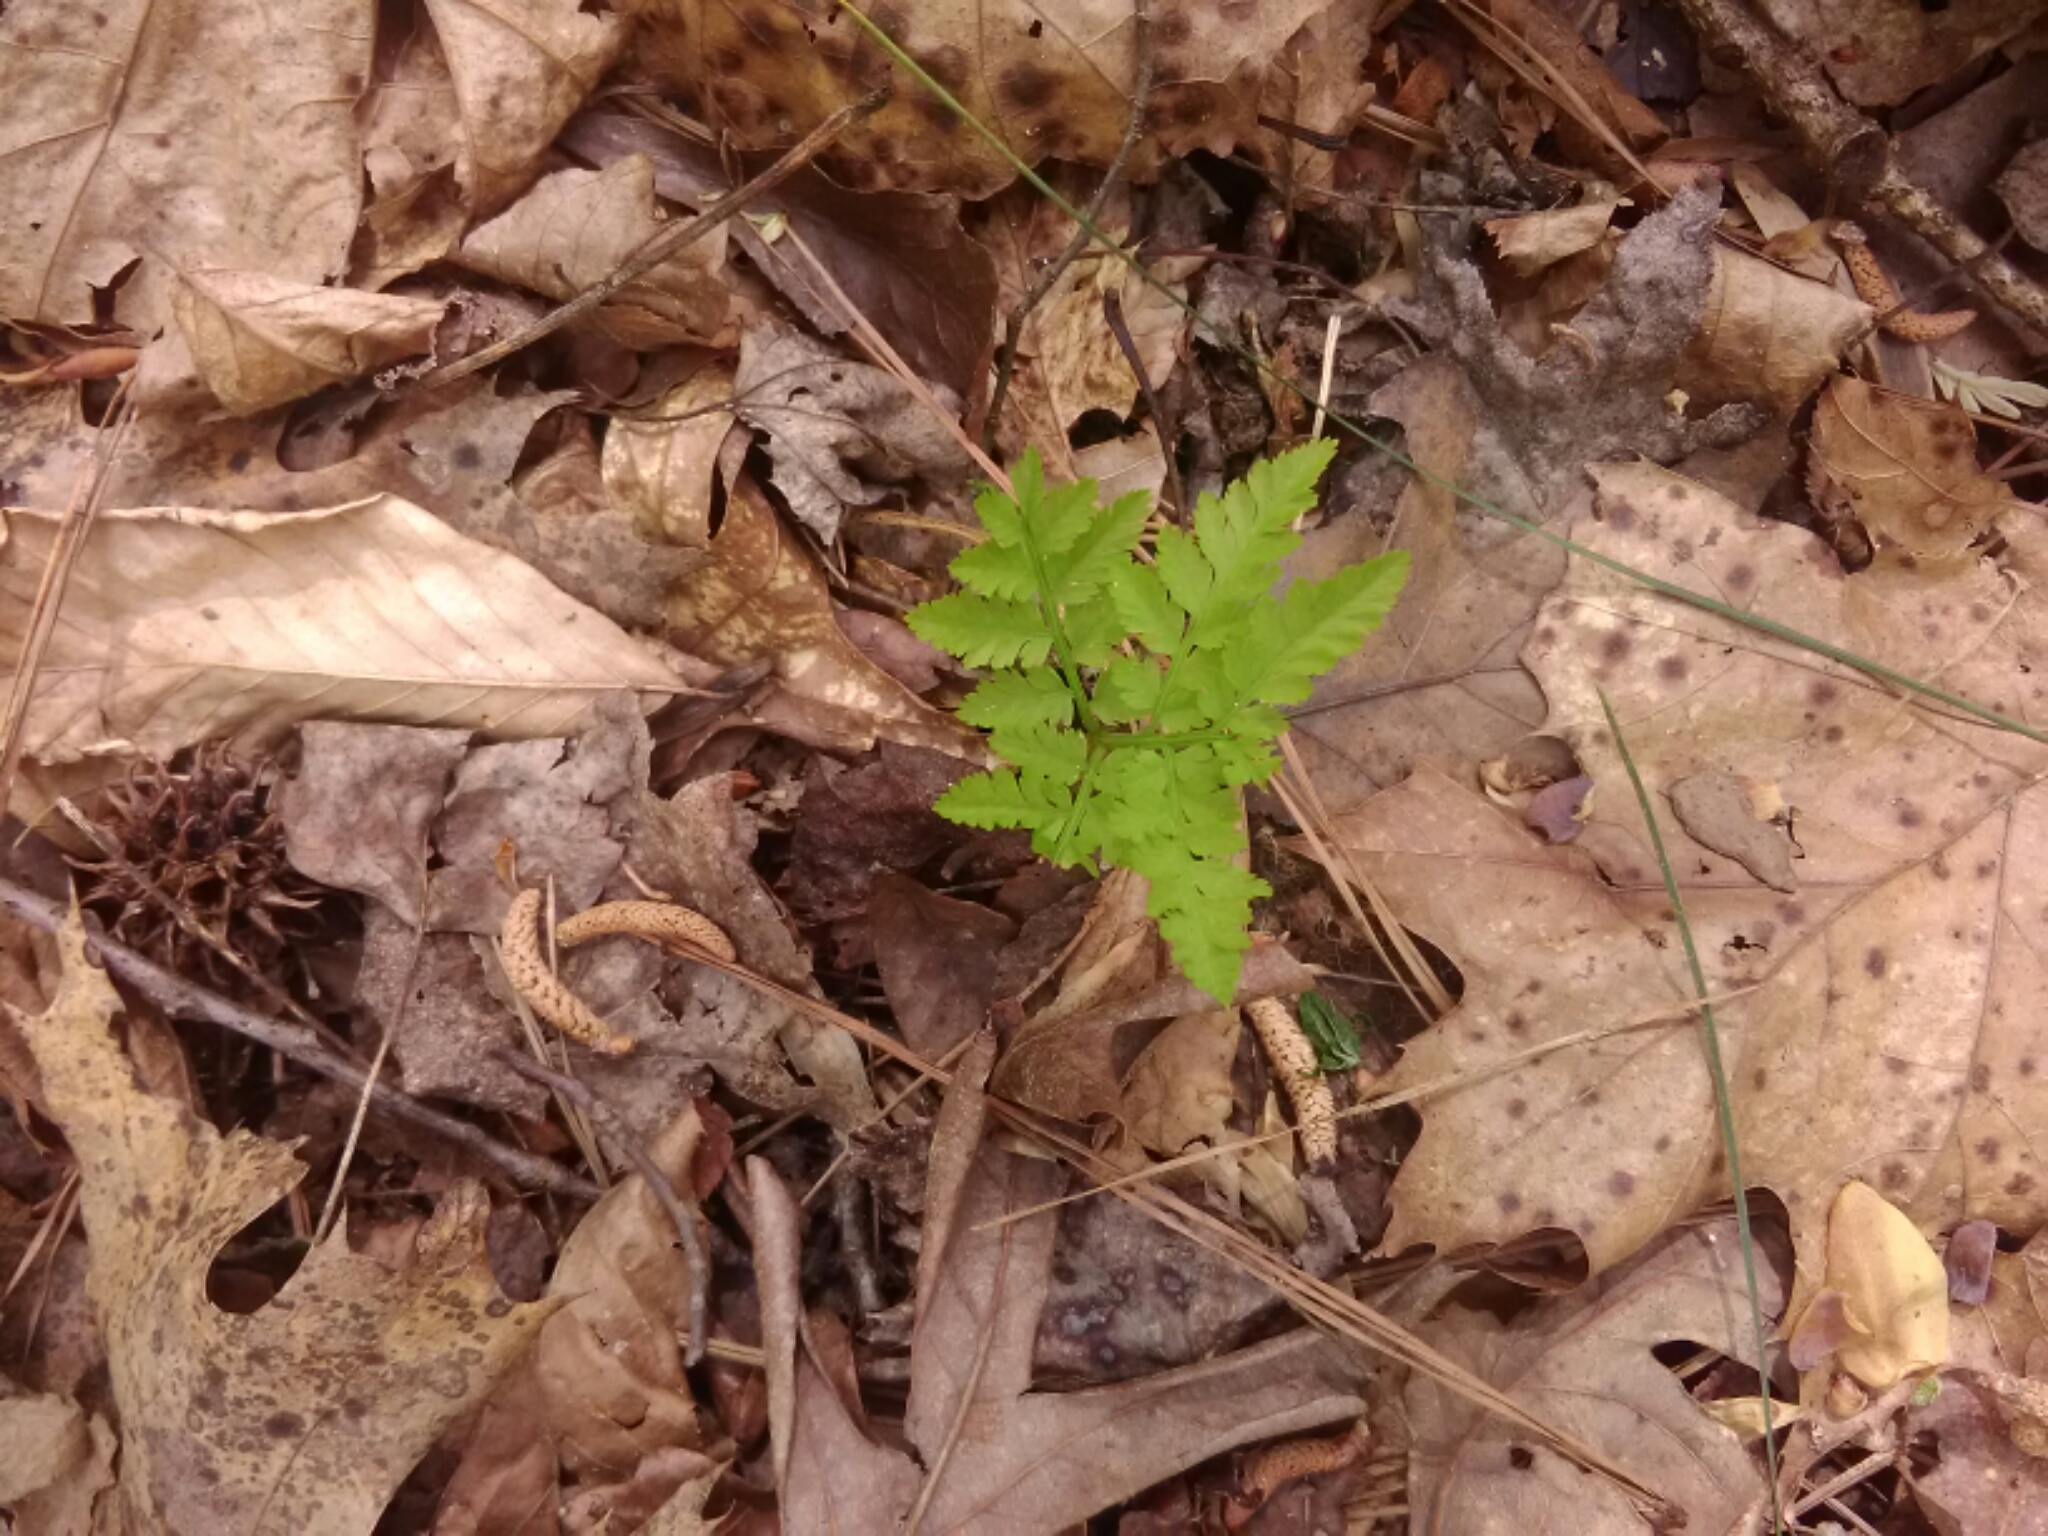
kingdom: Plantae
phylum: Tracheophyta
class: Polypodiopsida
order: Ophioglossales
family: Ophioglossaceae
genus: Botrypus
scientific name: Botrypus virginianus
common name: Common grapefern
